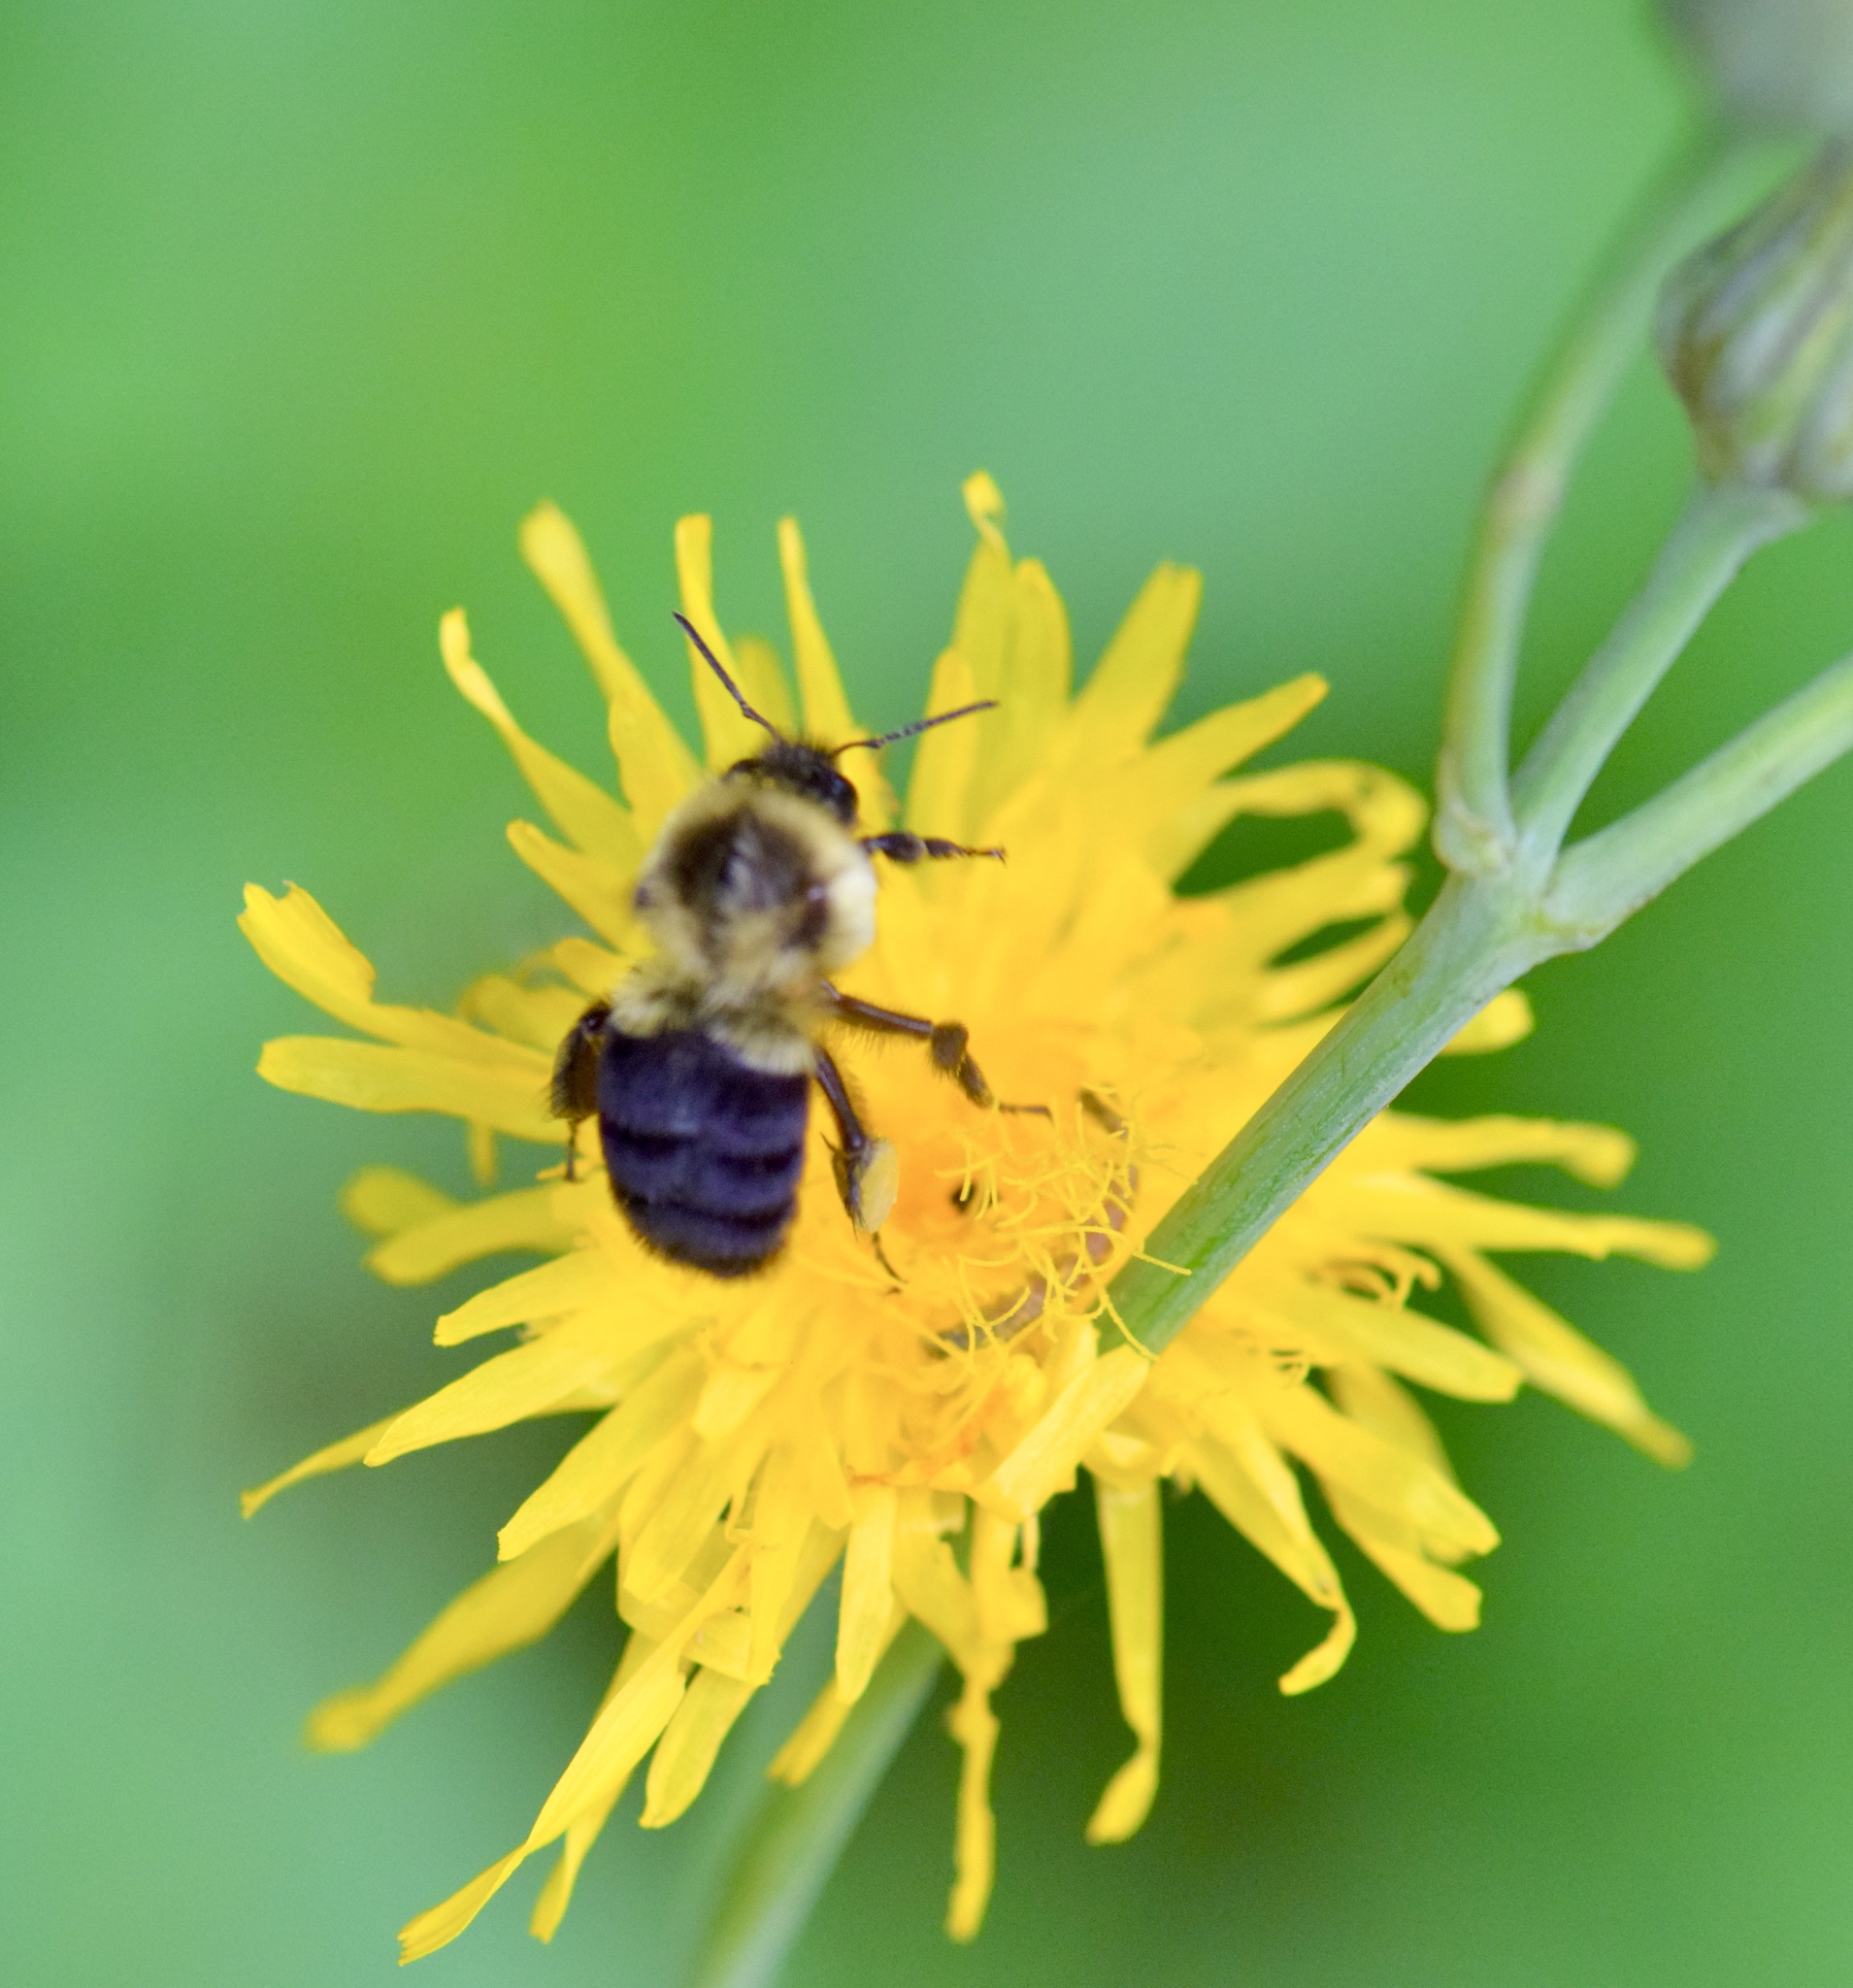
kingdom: Animalia
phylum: Arthropoda
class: Insecta
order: Hymenoptera
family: Apidae
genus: Bombus
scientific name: Bombus impatiens
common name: Common eastern bumble bee
